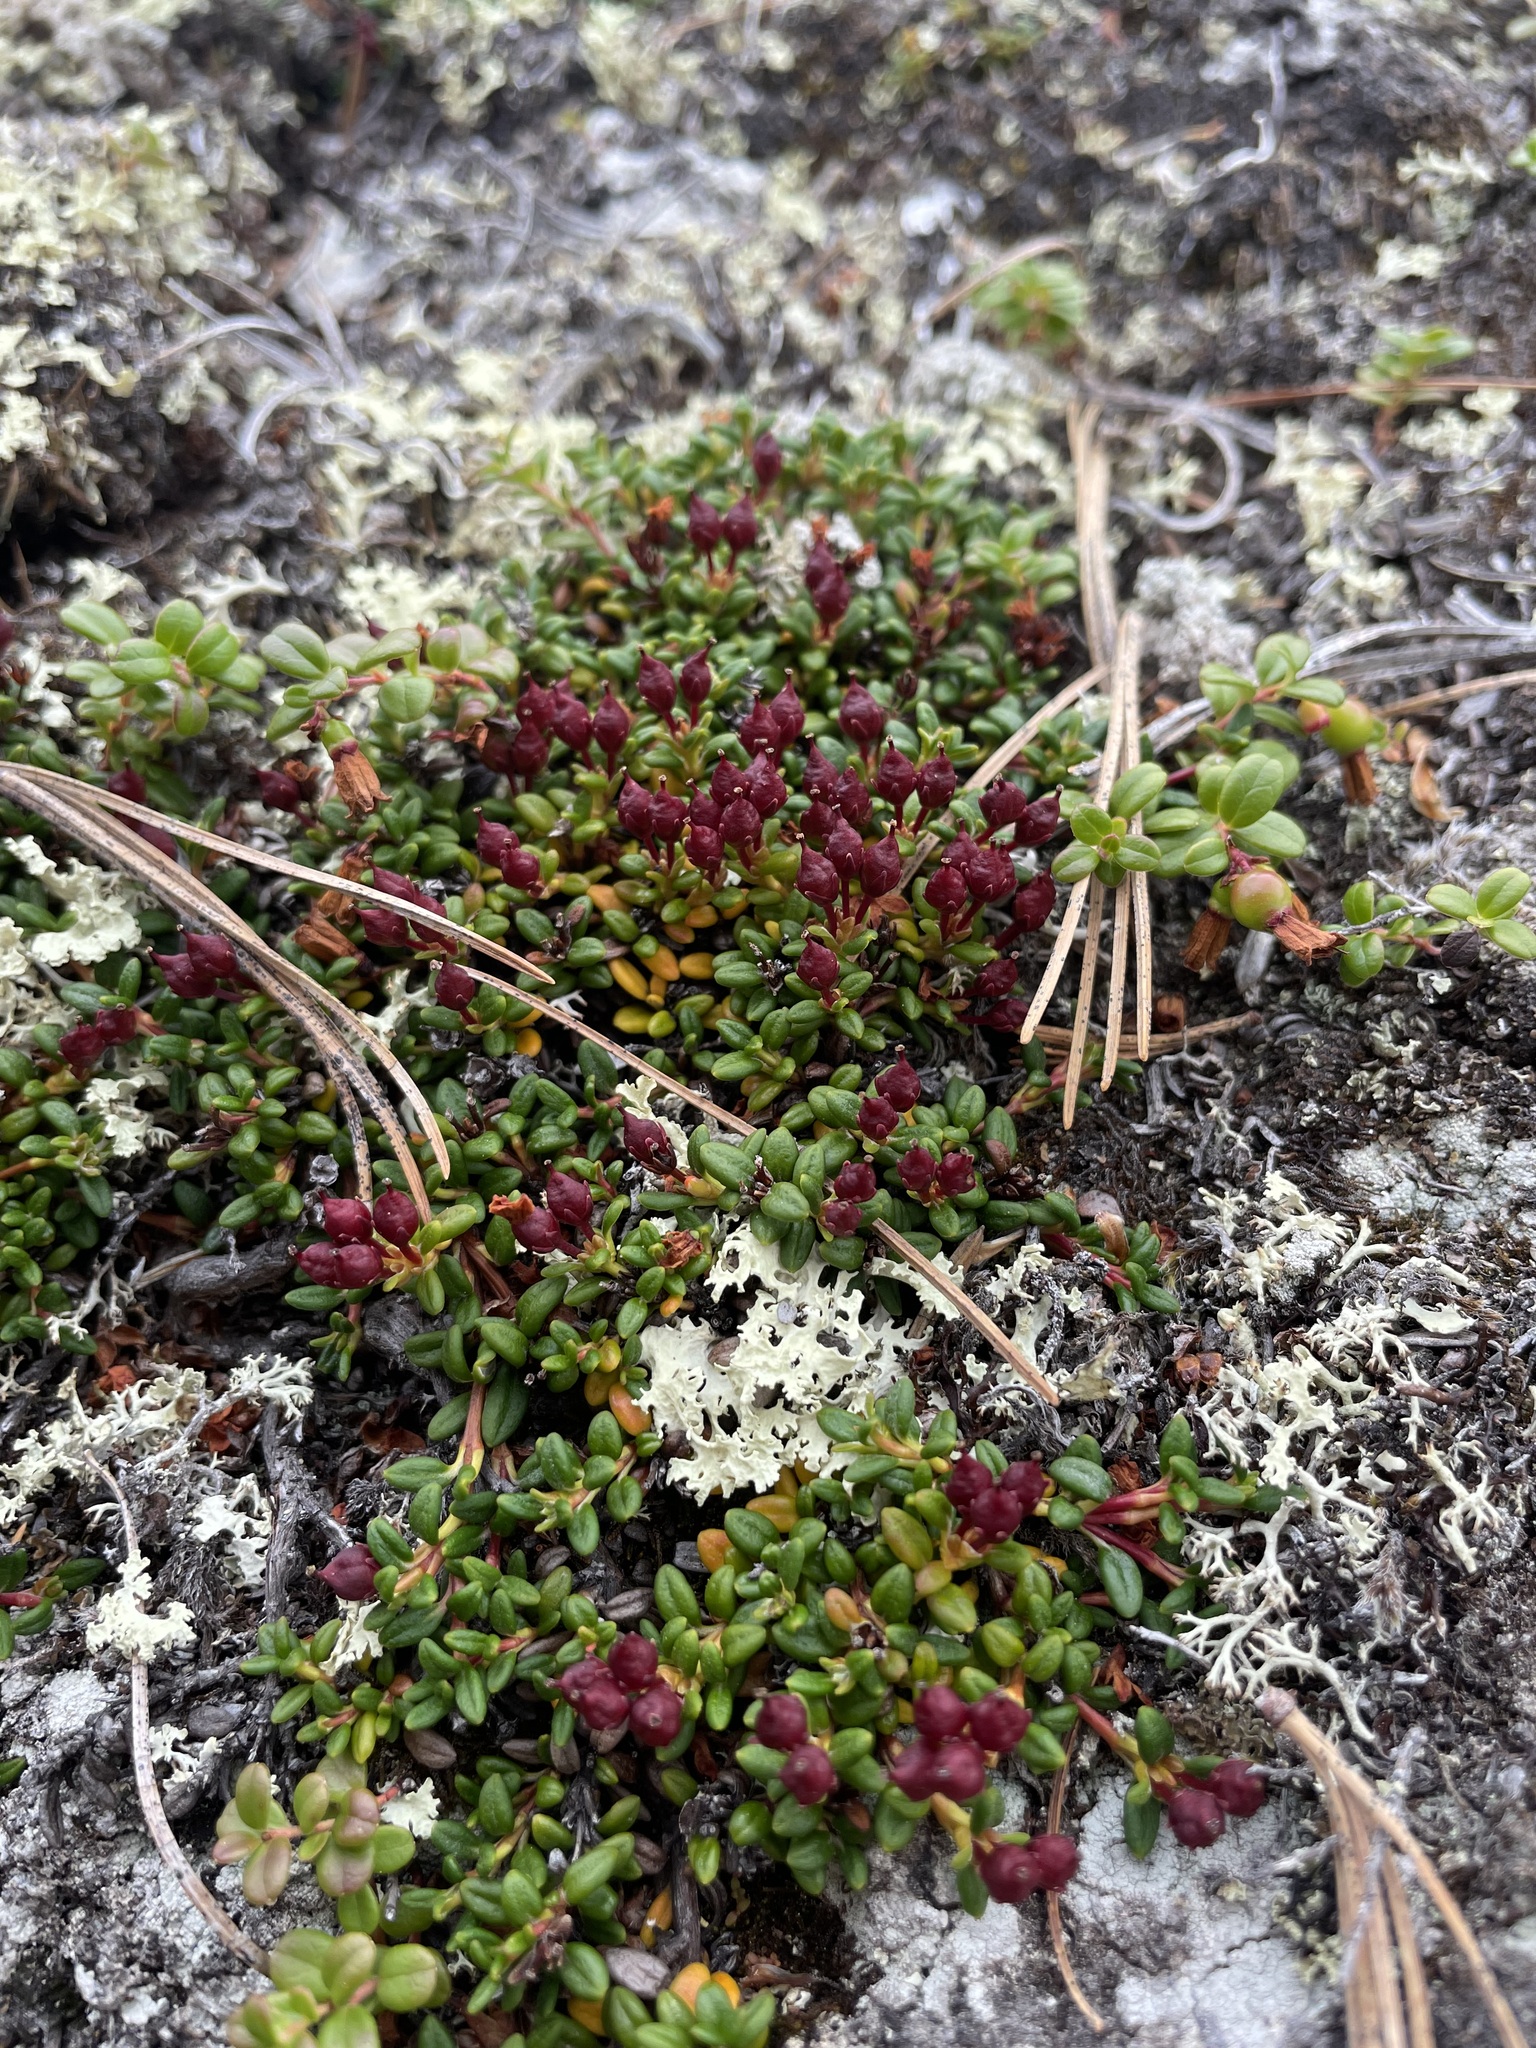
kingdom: Plantae
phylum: Tracheophyta
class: Magnoliopsida
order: Ericales
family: Ericaceae
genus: Kalmia
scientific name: Kalmia procumbens
